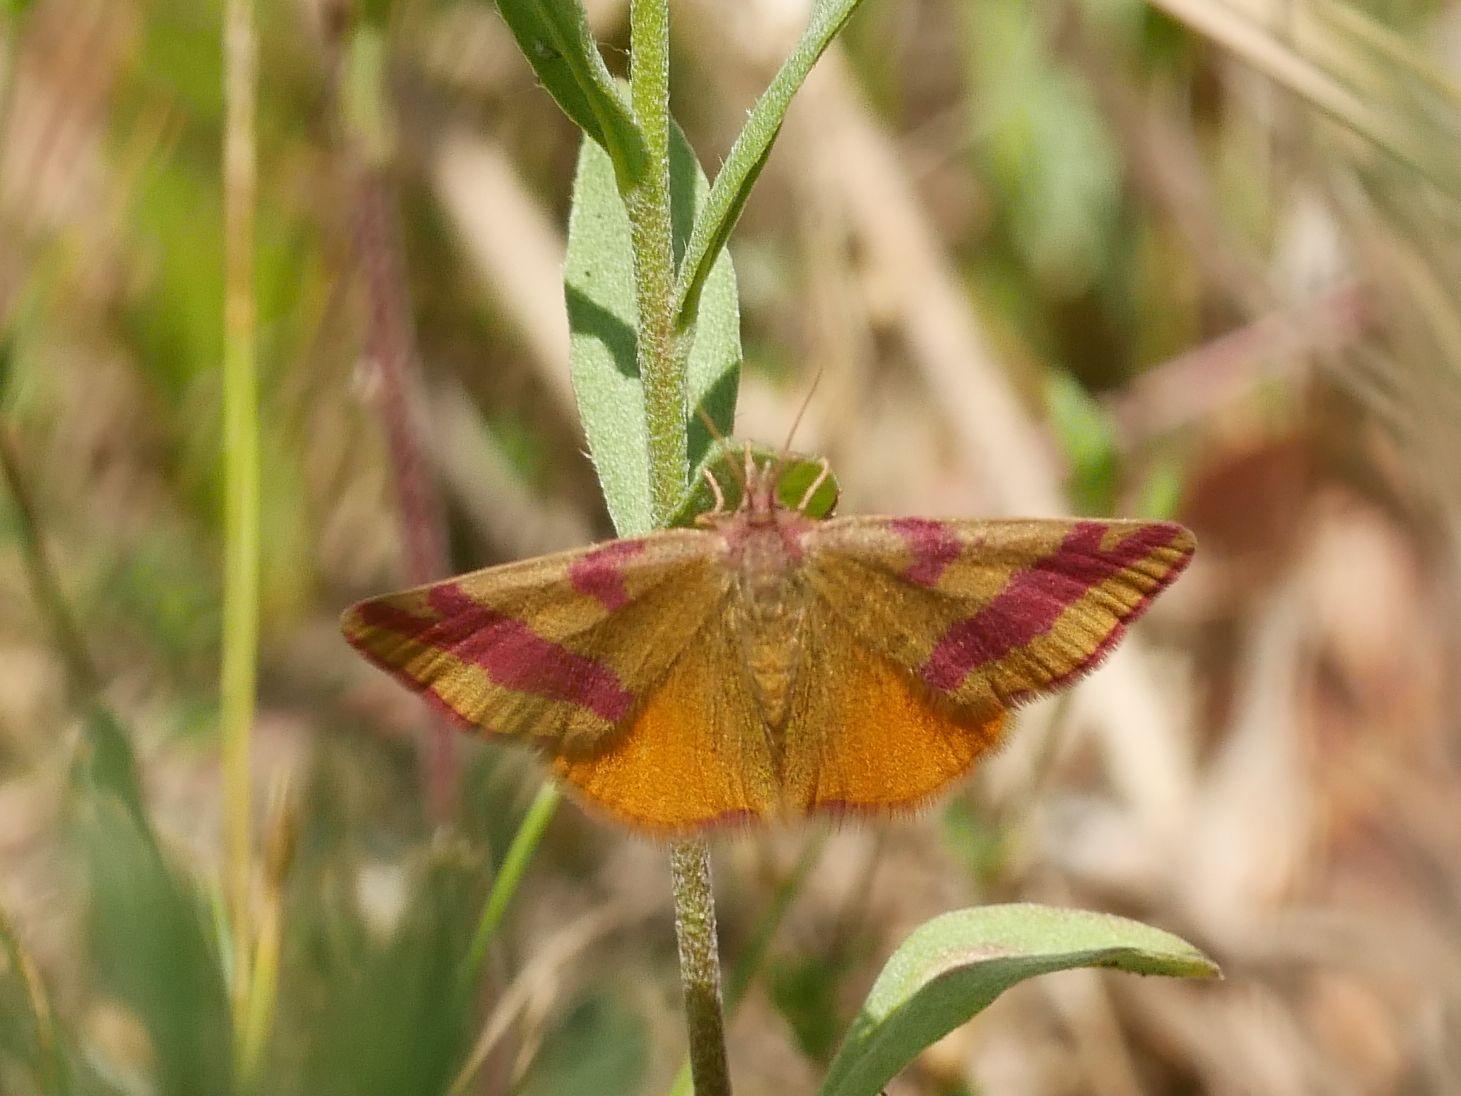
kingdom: Animalia
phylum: Arthropoda
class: Insecta
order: Lepidoptera
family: Geometridae
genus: Lythria
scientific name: Lythria cruentaria
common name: Purple-barred yellow
